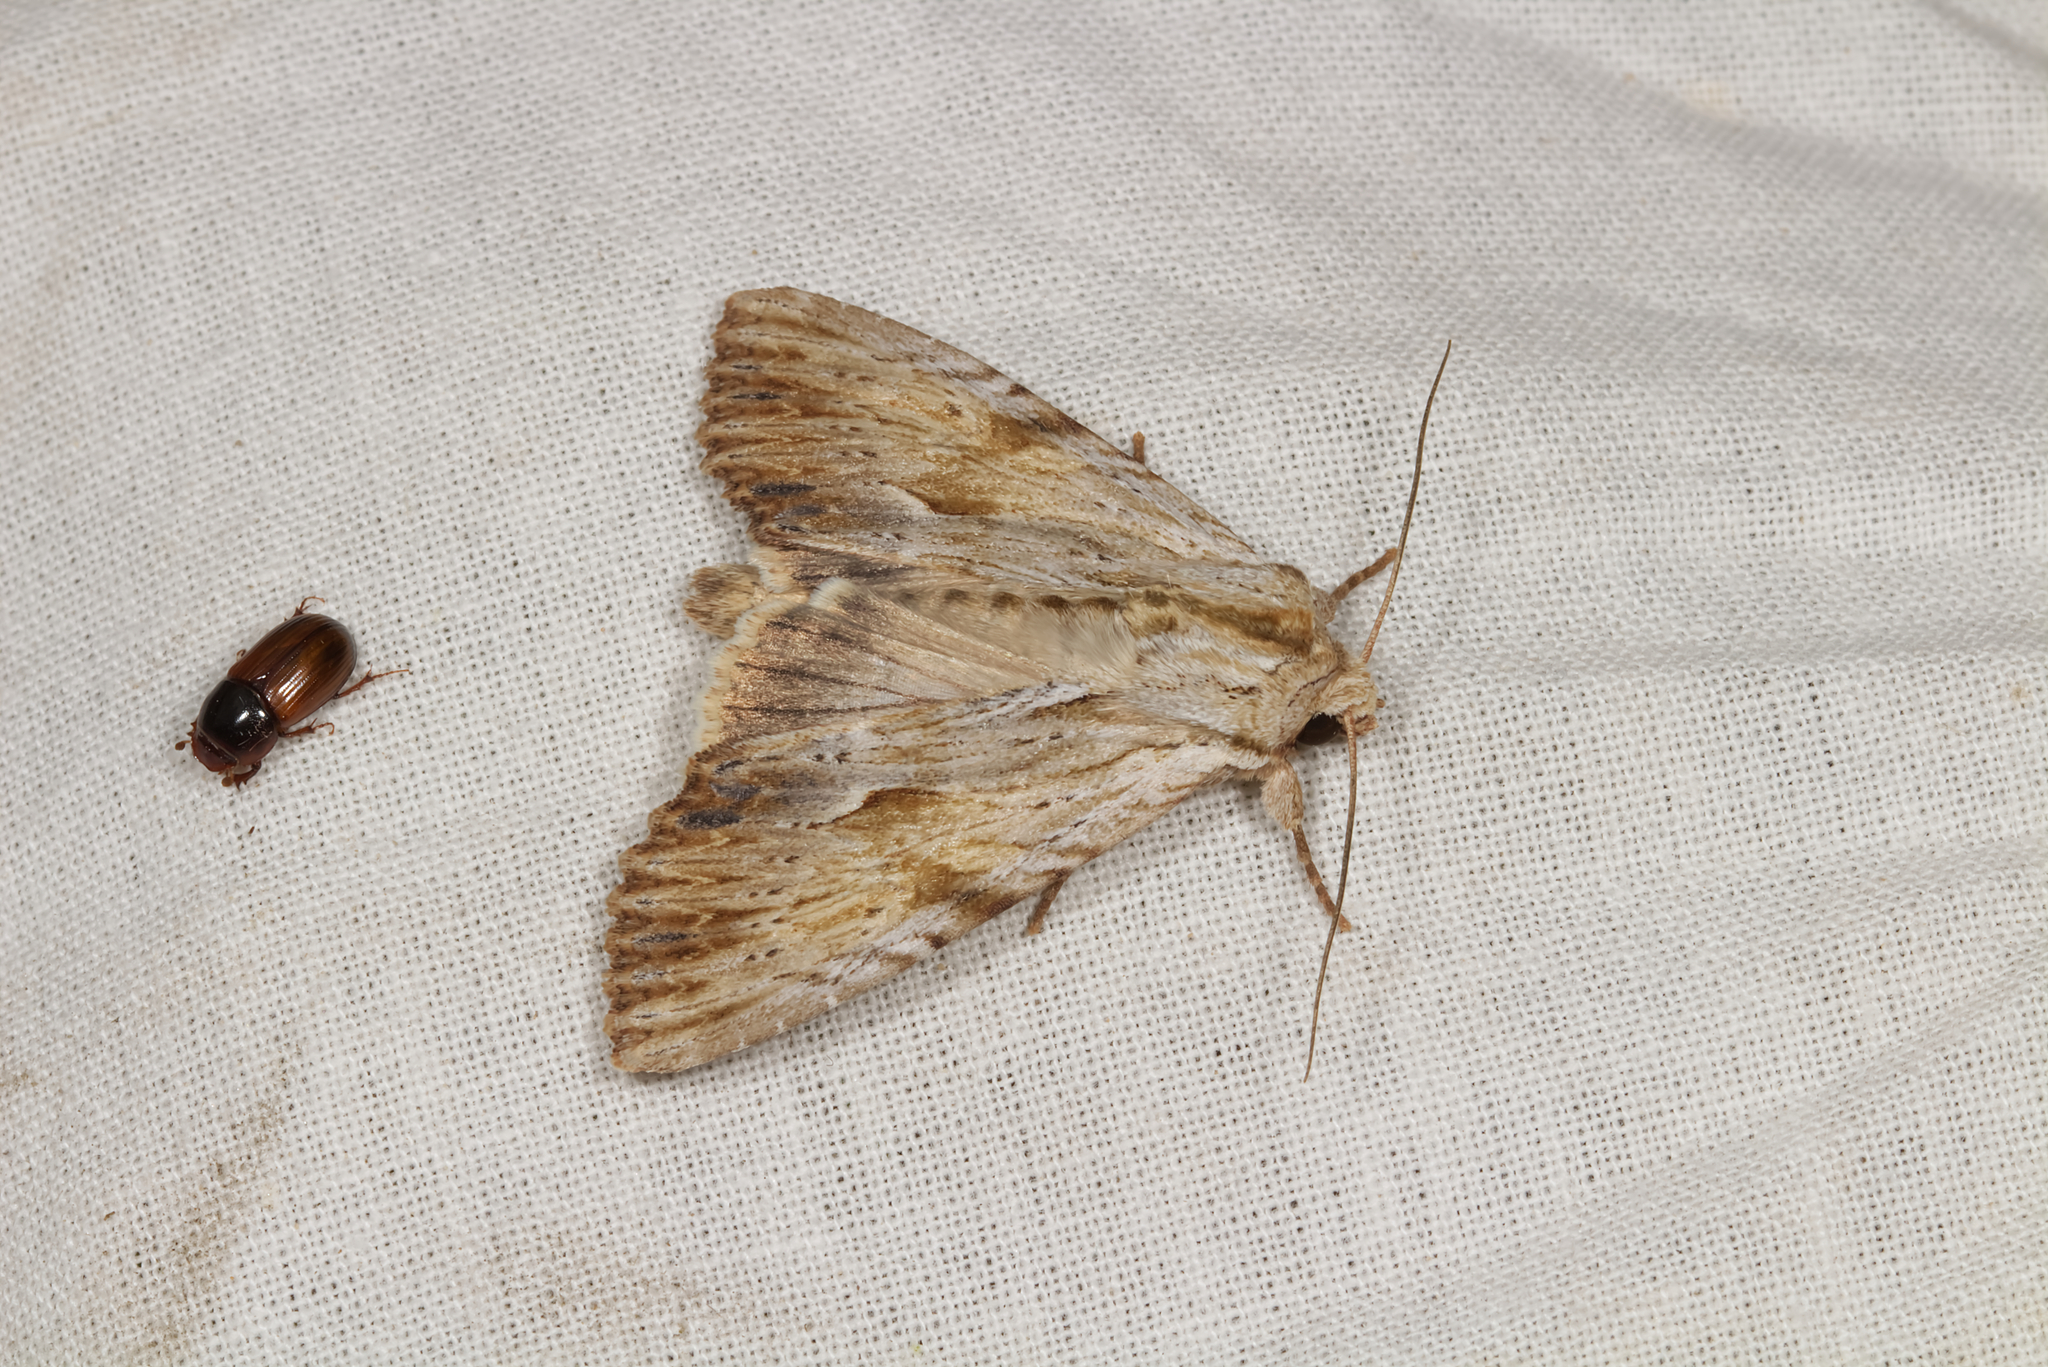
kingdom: Animalia
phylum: Arthropoda
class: Insecta
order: Lepidoptera
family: Noctuidae
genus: Apamea
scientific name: Apamea lithoxylaea
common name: Light arches
